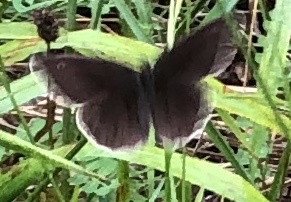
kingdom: Animalia
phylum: Arthropoda
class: Insecta
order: Lepidoptera
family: Nymphalidae
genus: Aphantopus
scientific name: Aphantopus hyperantus
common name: Ringlet
